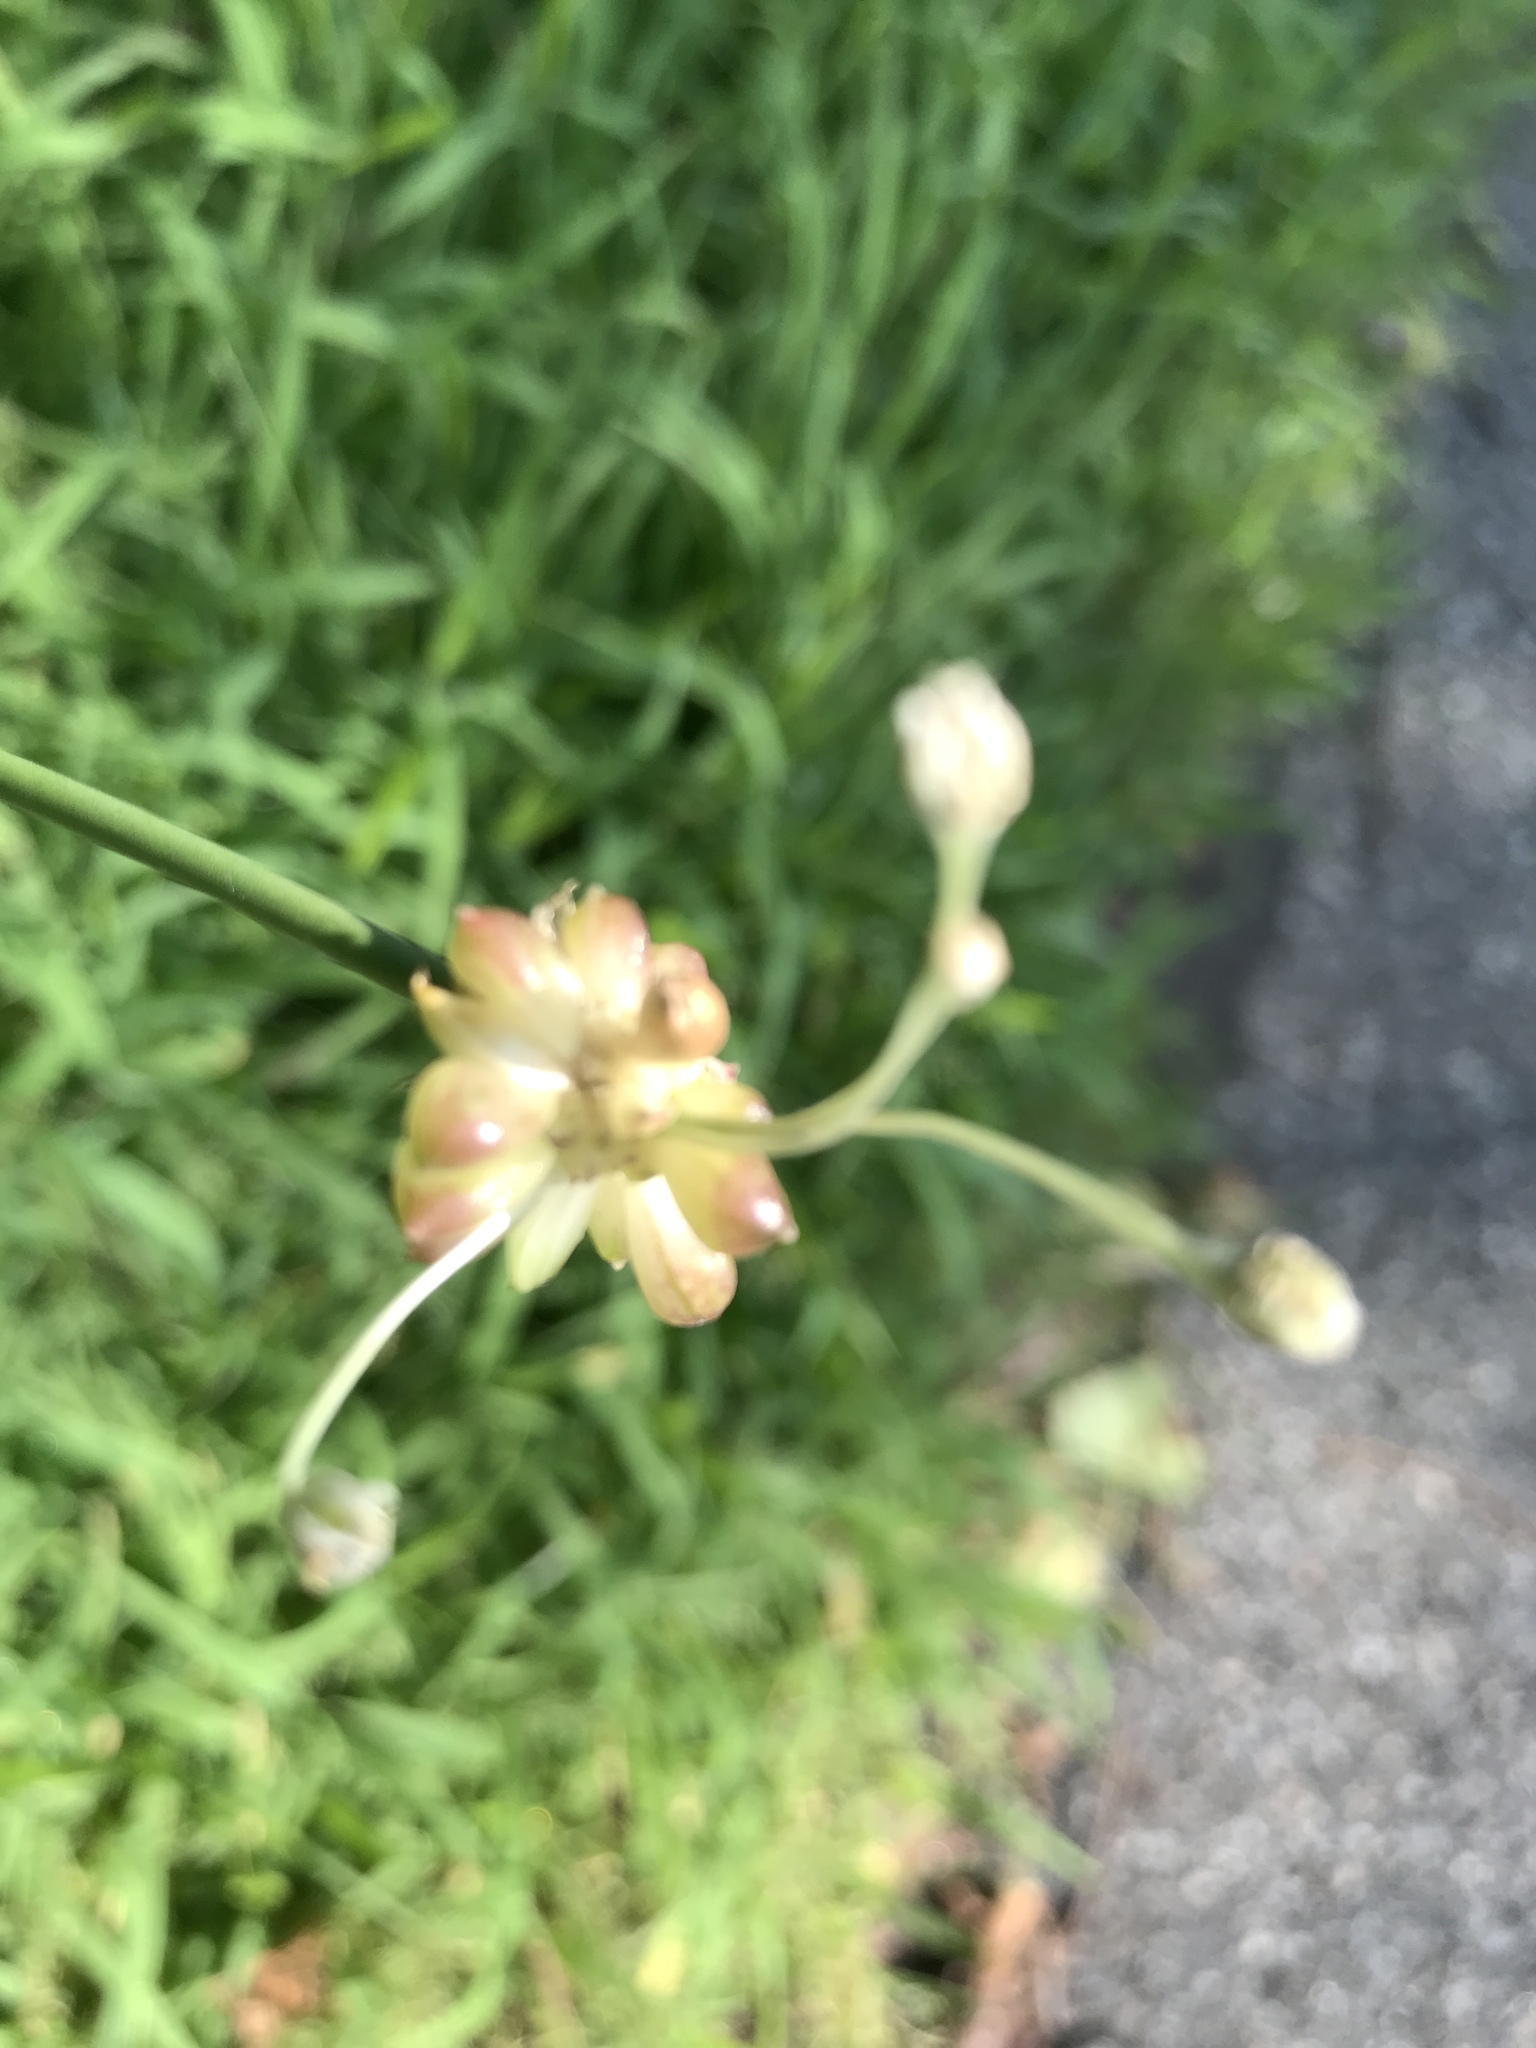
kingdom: Plantae
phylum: Tracheophyta
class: Liliopsida
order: Asparagales
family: Amaryllidaceae
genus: Allium
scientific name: Allium vineale
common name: Crow garlic
